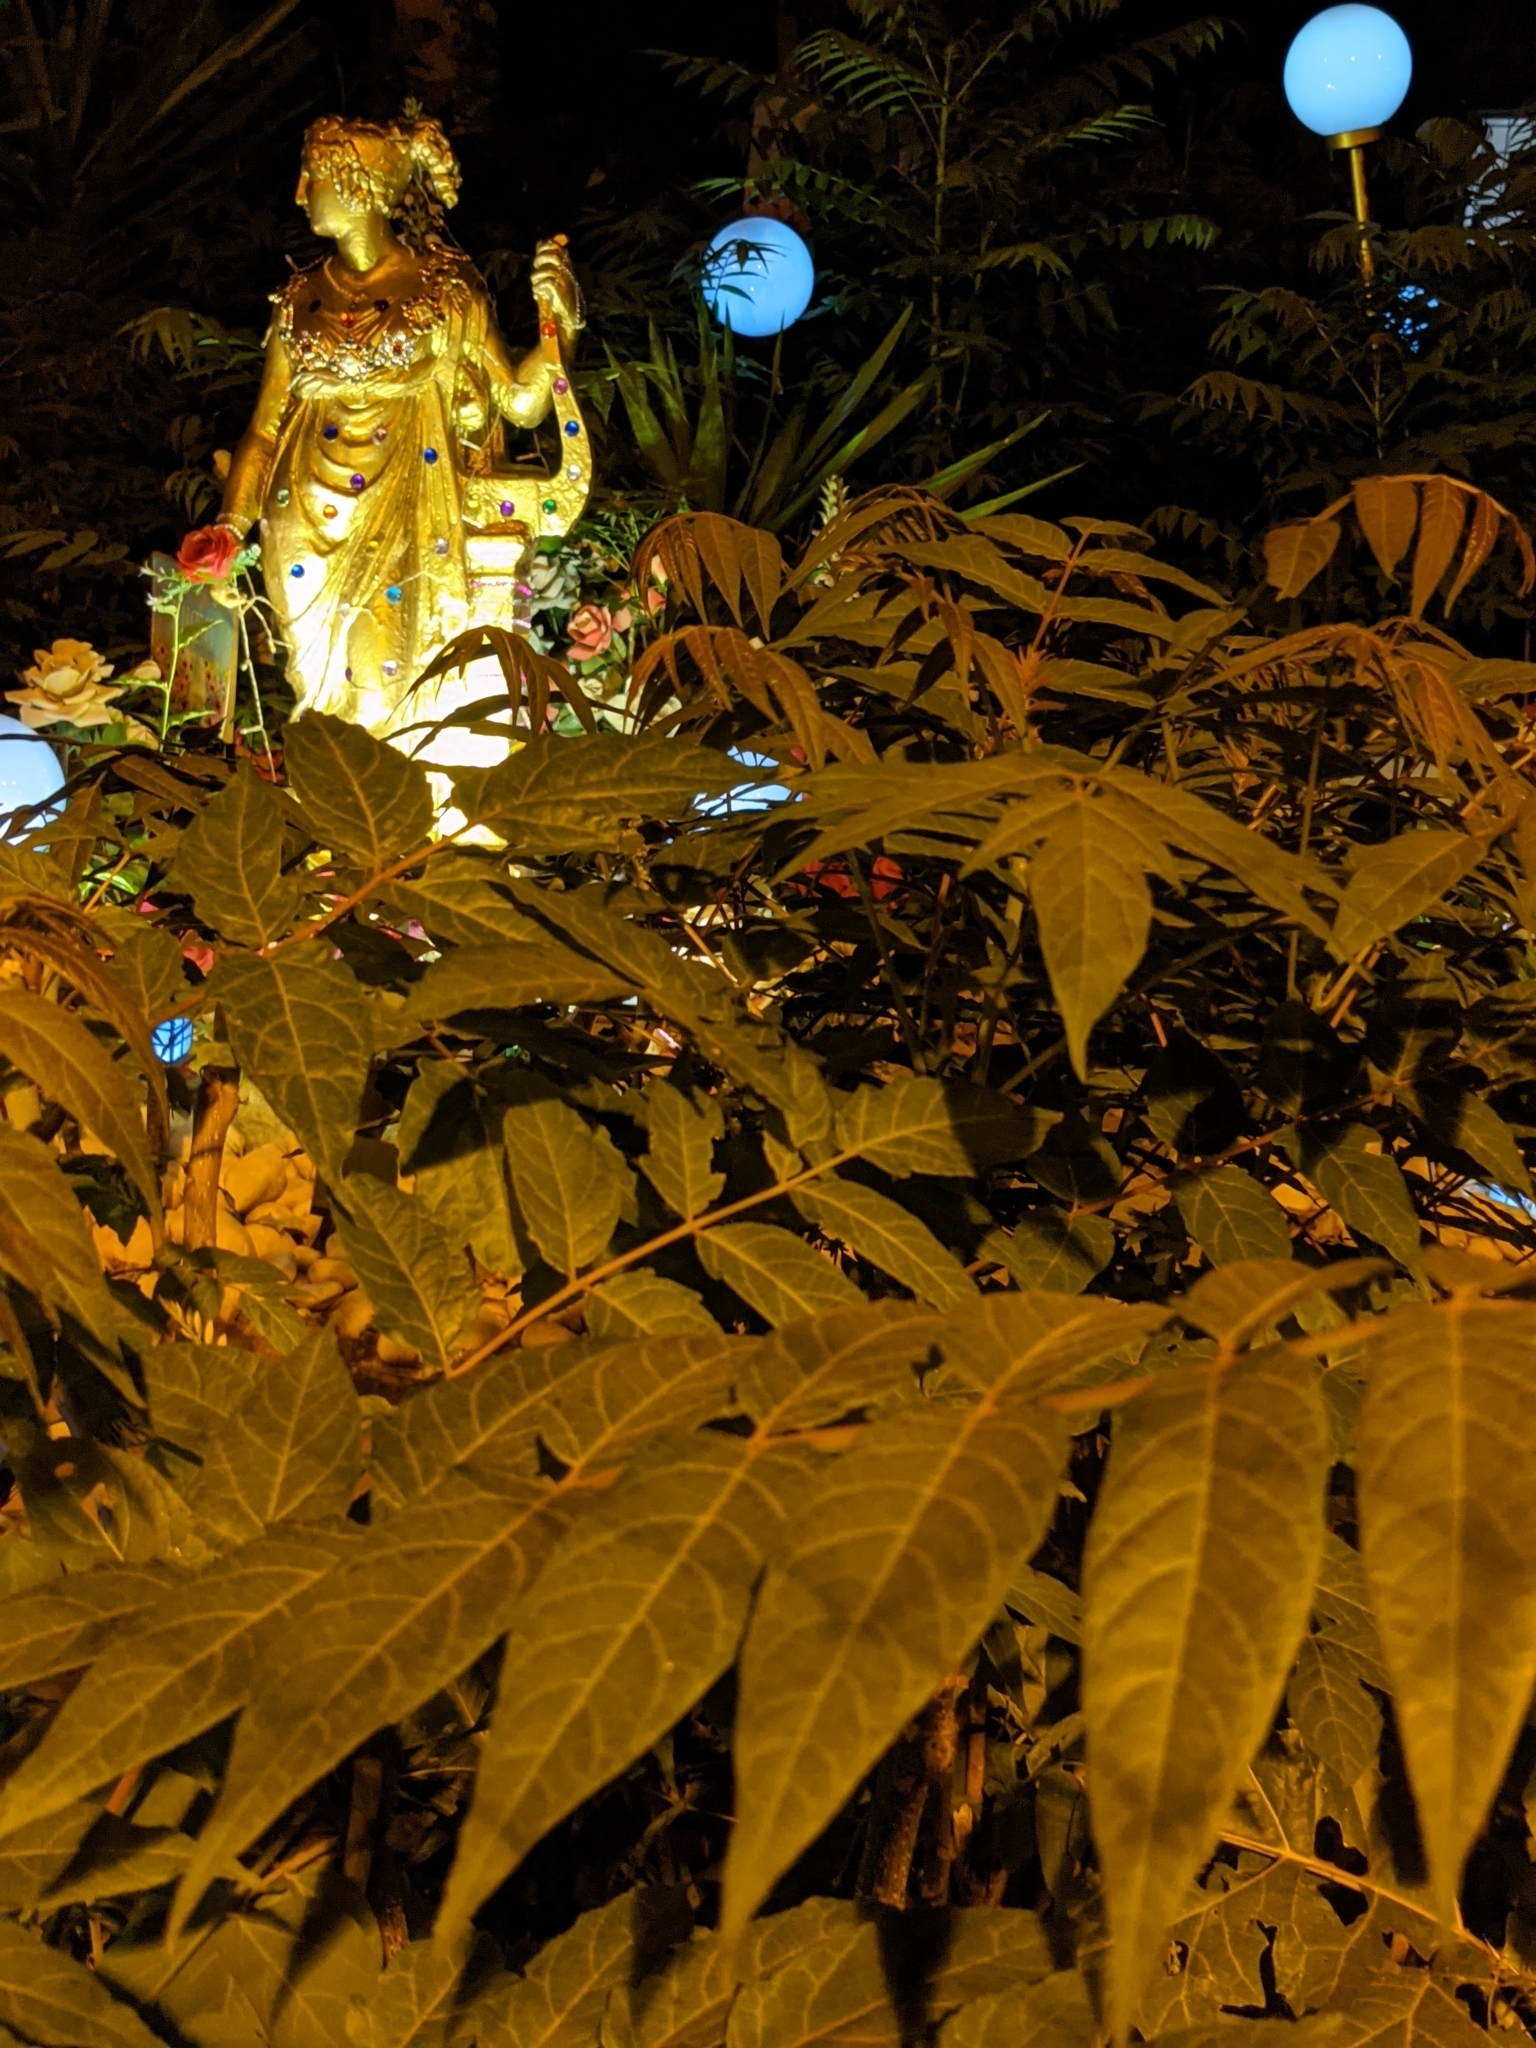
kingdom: Plantae
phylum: Tracheophyta
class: Magnoliopsida
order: Sapindales
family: Simaroubaceae
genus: Ailanthus
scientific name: Ailanthus altissima
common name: Tree-of-heaven
